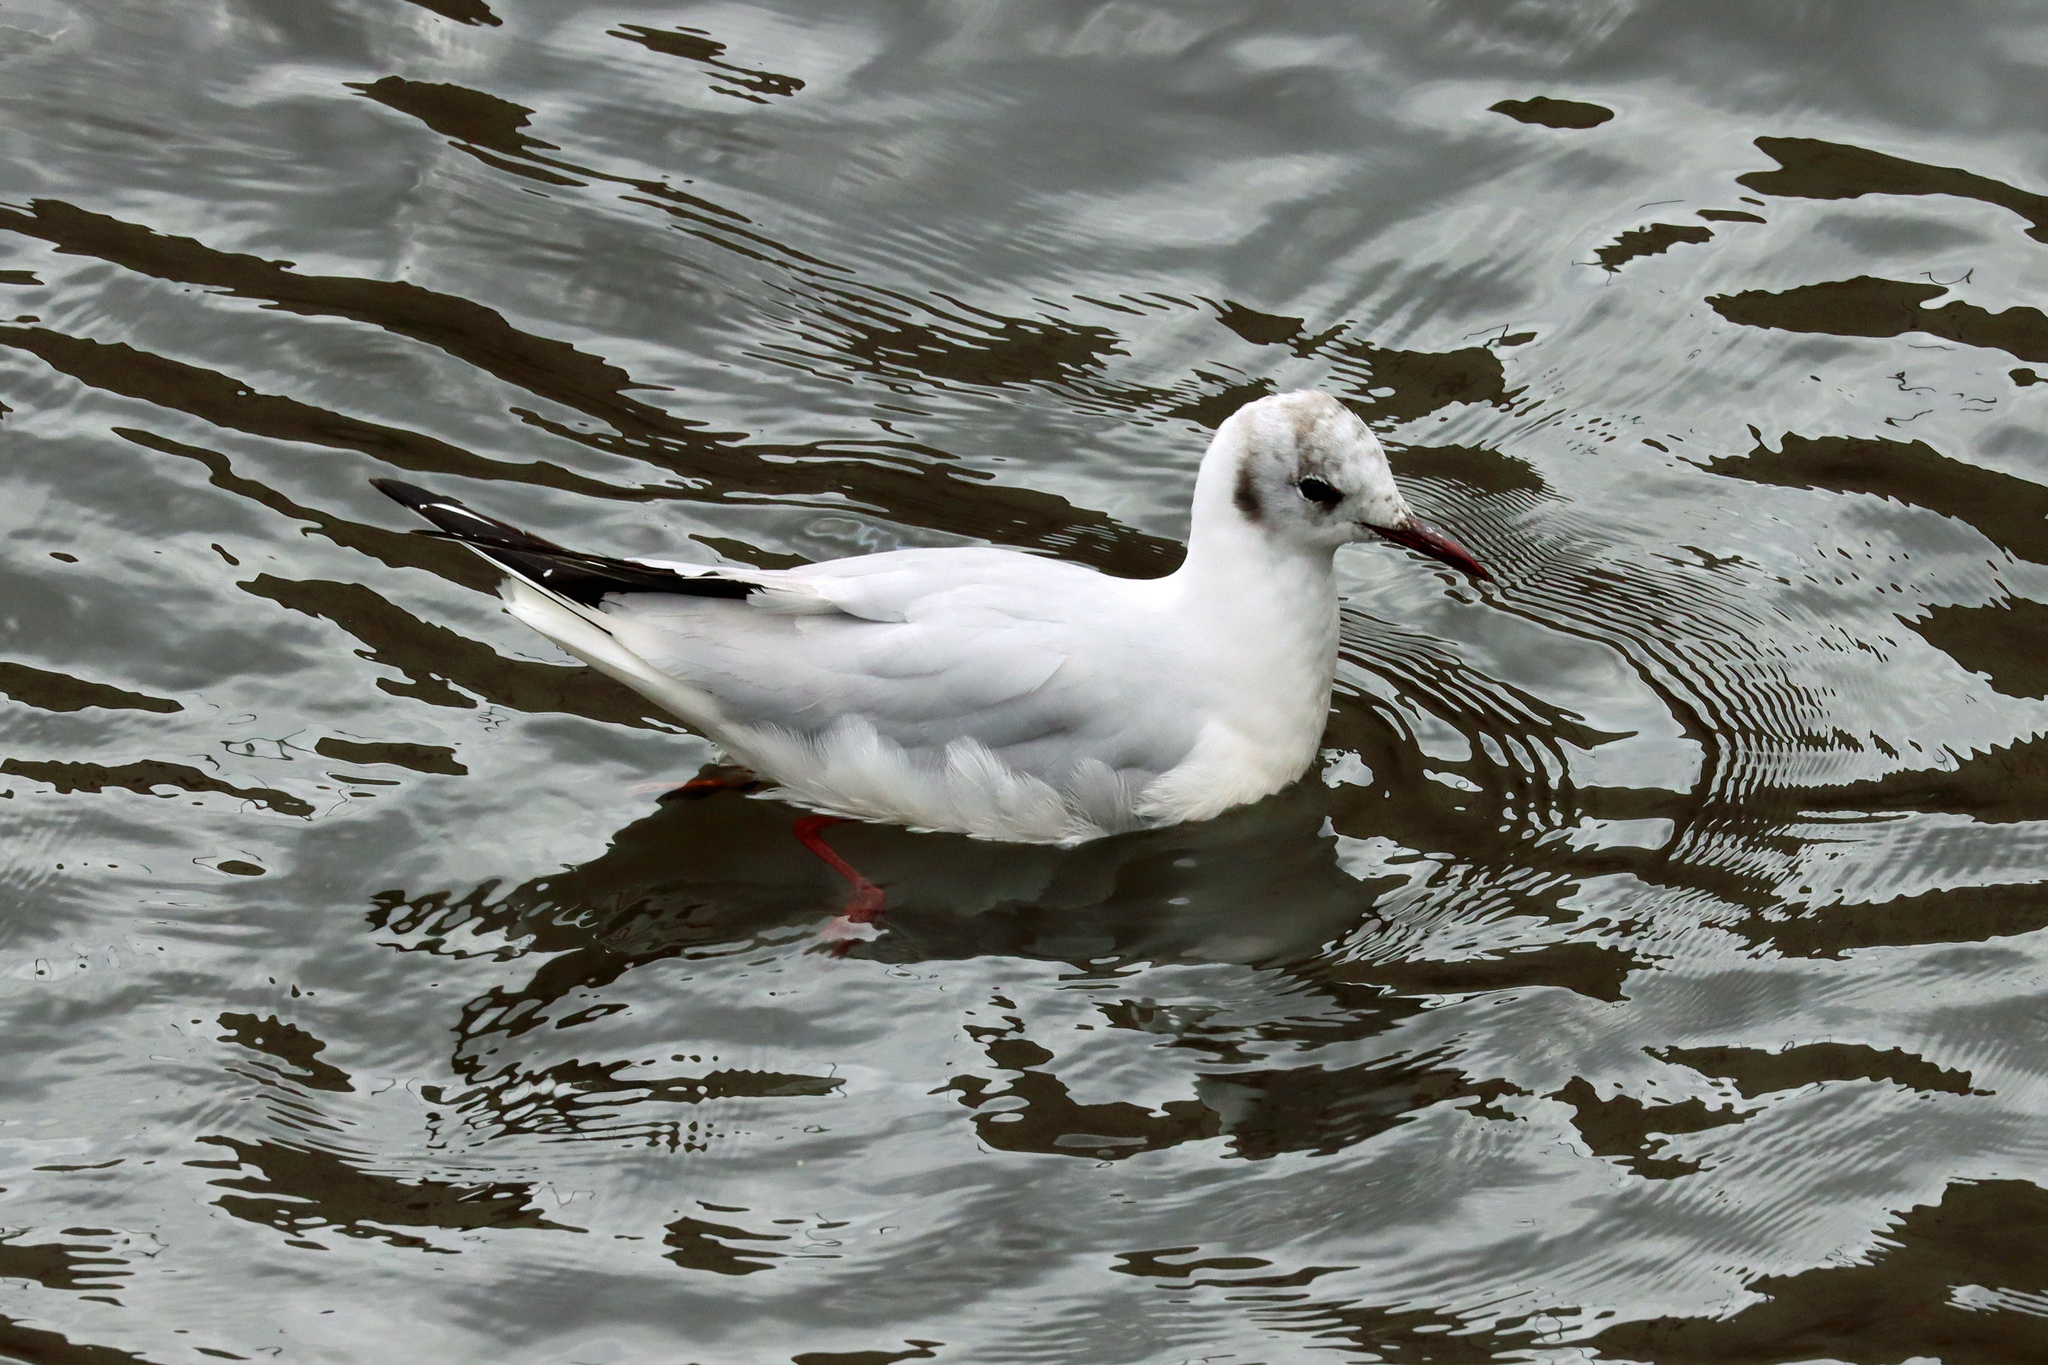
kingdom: Animalia
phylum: Chordata
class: Aves
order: Charadriiformes
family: Laridae
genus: Chroicocephalus
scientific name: Chroicocephalus ridibundus
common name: Black-headed gull
